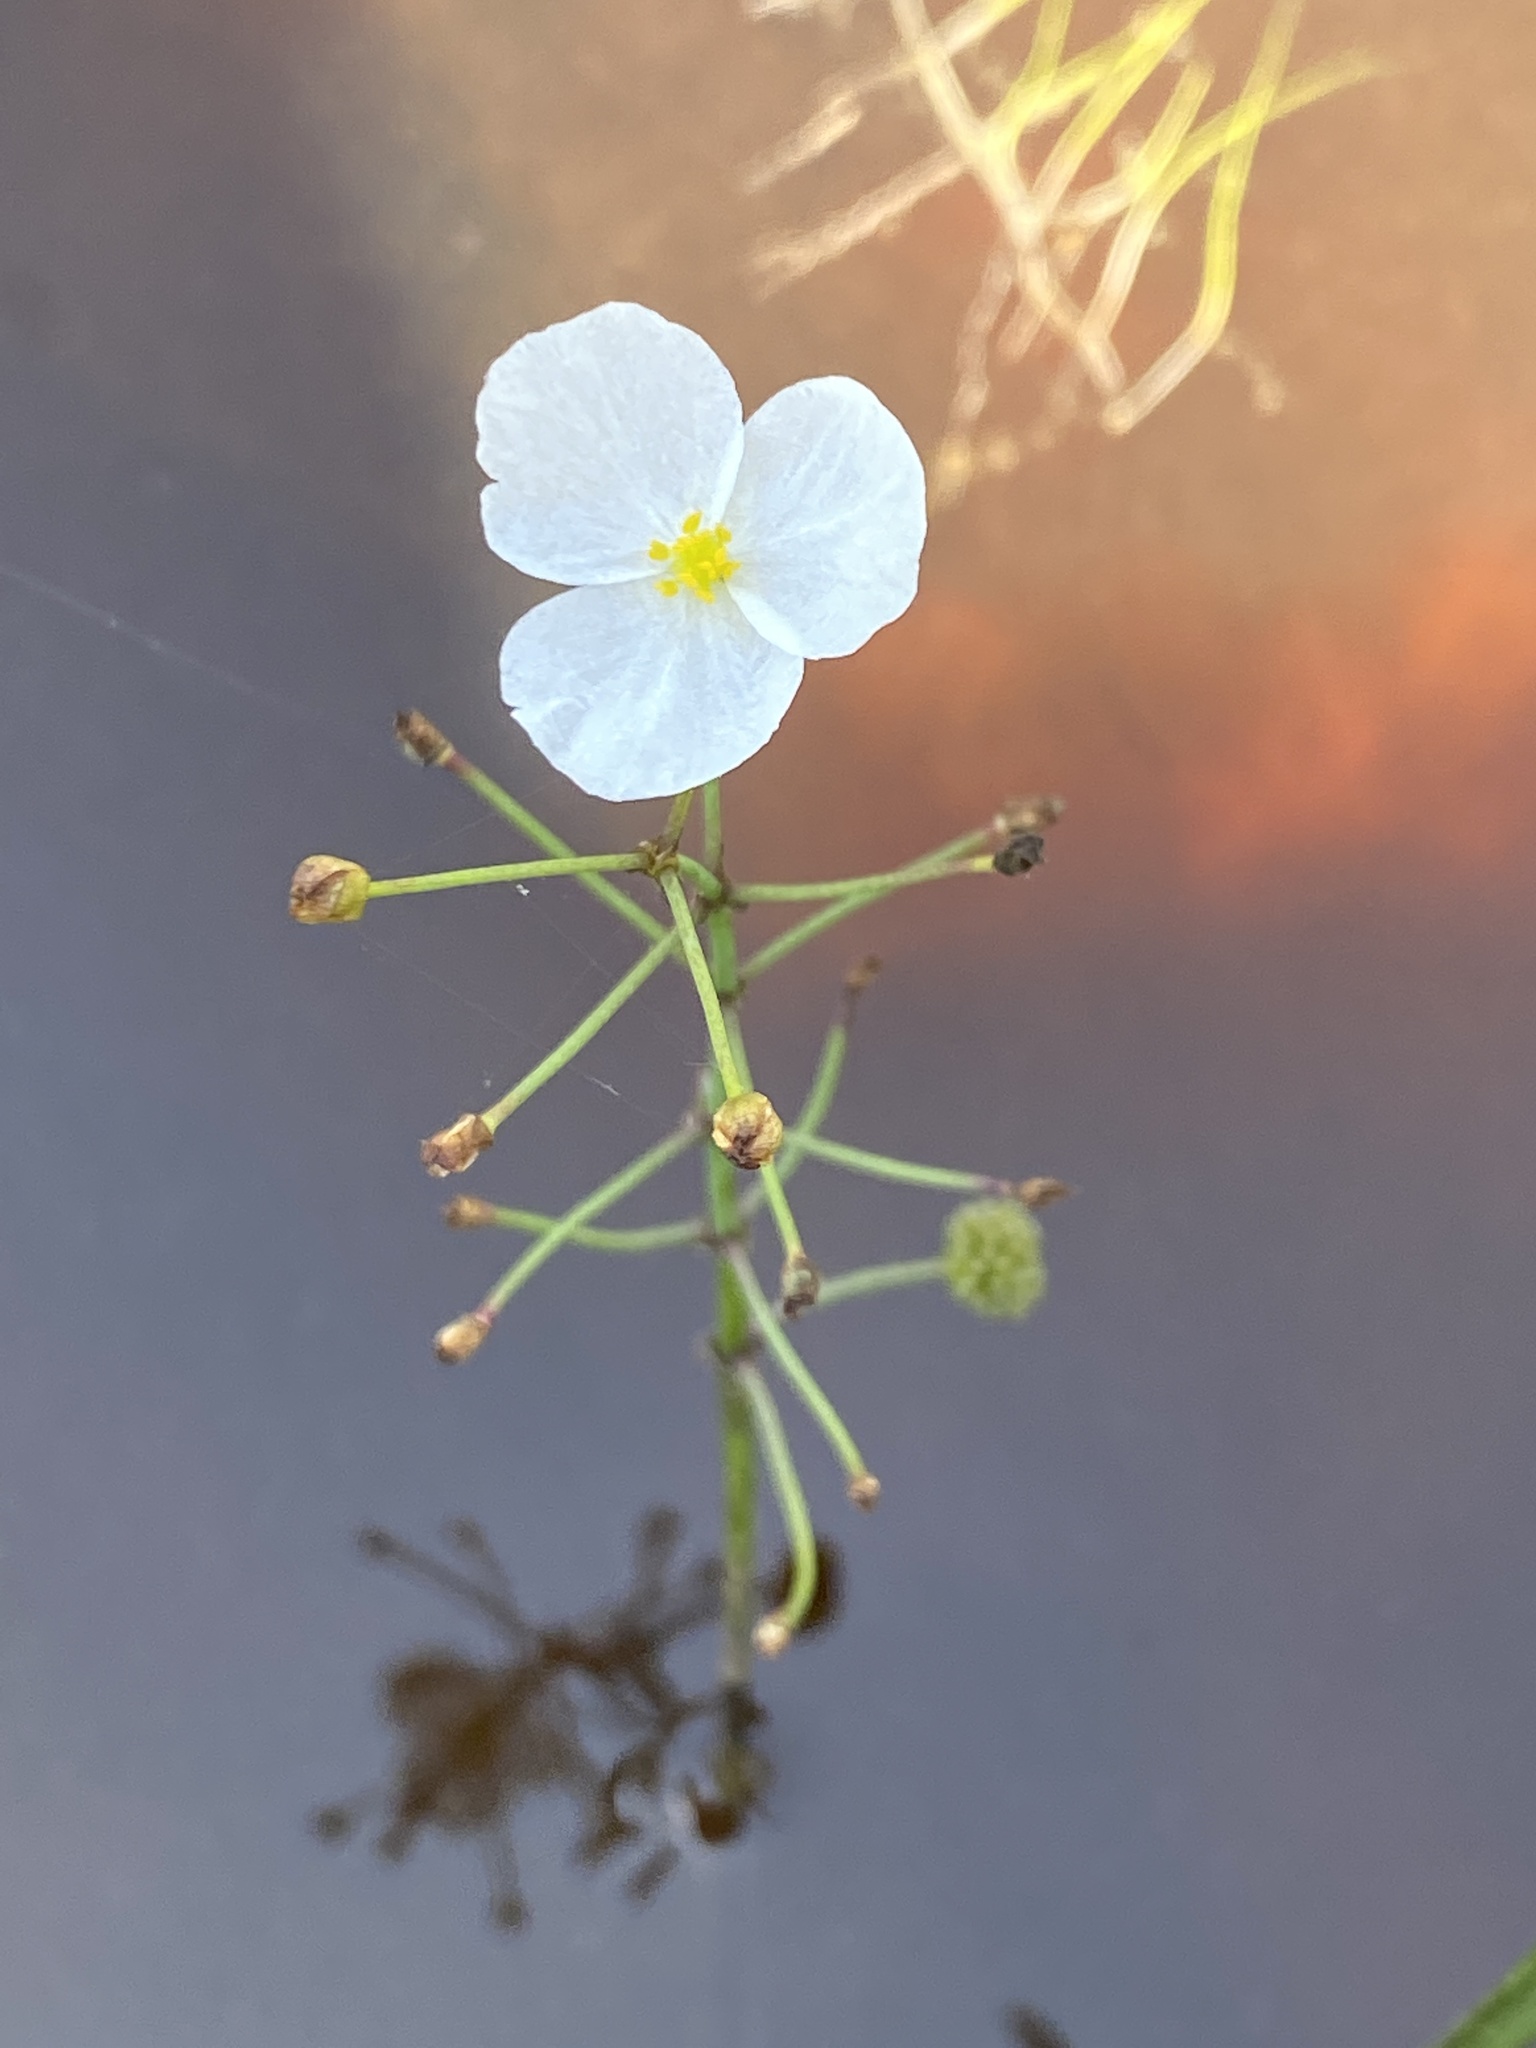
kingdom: Plantae
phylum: Tracheophyta
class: Liliopsida
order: Alismatales
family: Alismataceae
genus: Sagittaria
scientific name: Sagittaria graminea
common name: Grass-leaved arrowhead
